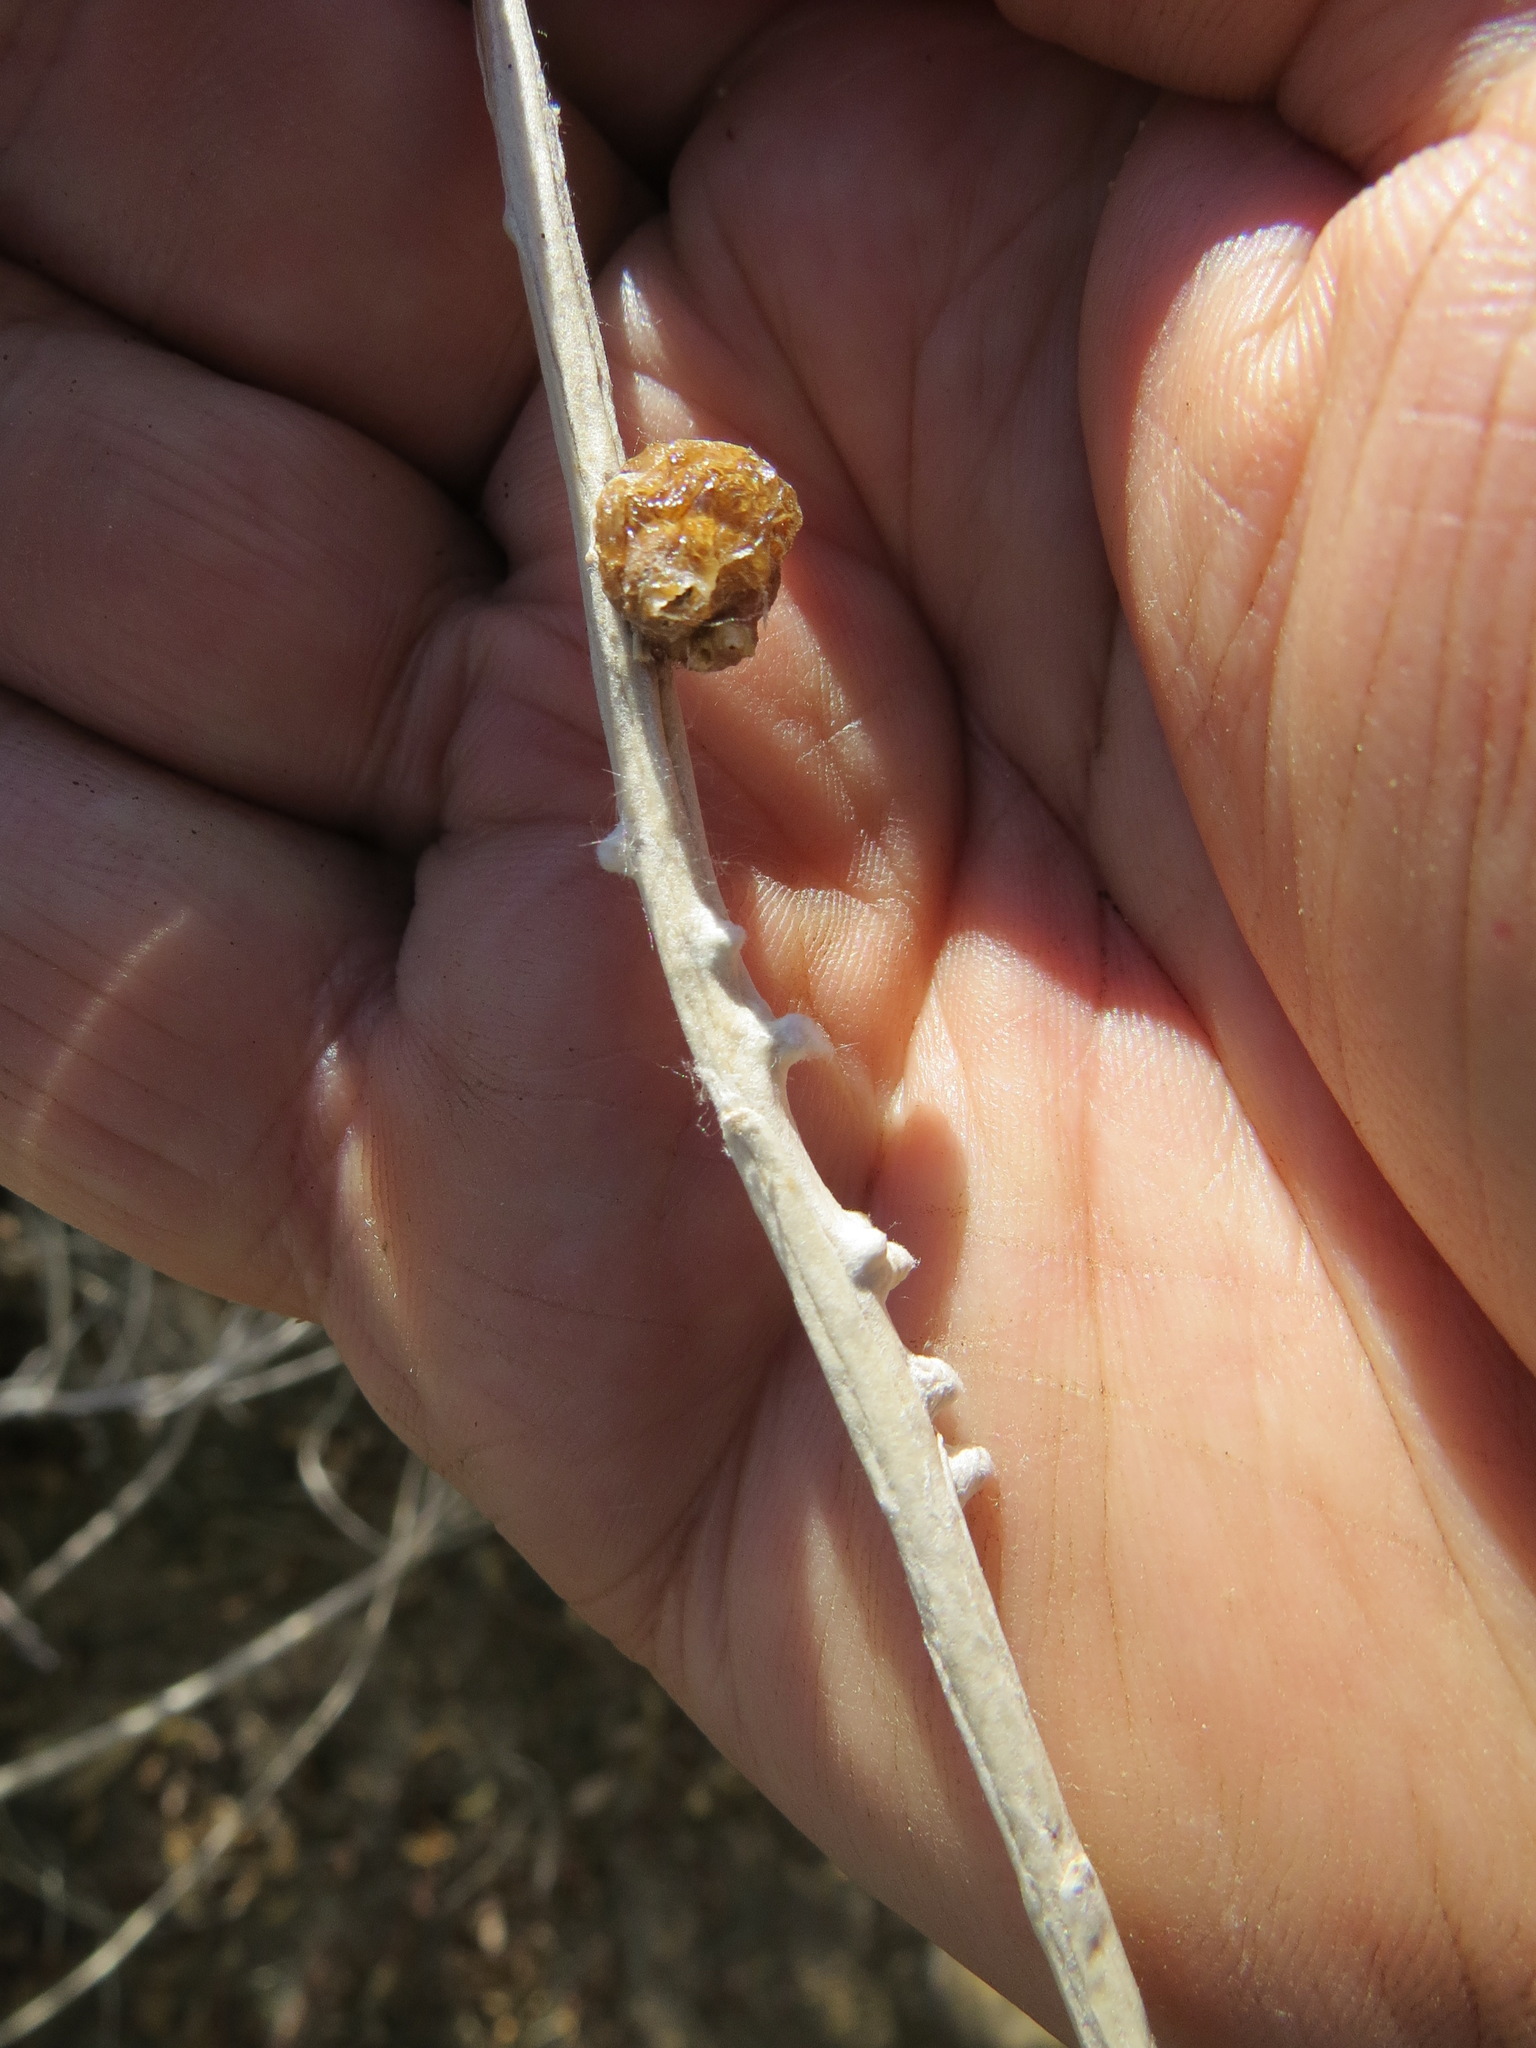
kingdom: Animalia
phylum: Arthropoda
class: Insecta
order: Diptera
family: Cecidomyiidae
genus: Rhopalomyia
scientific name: Rhopalomyia chrysothamni
